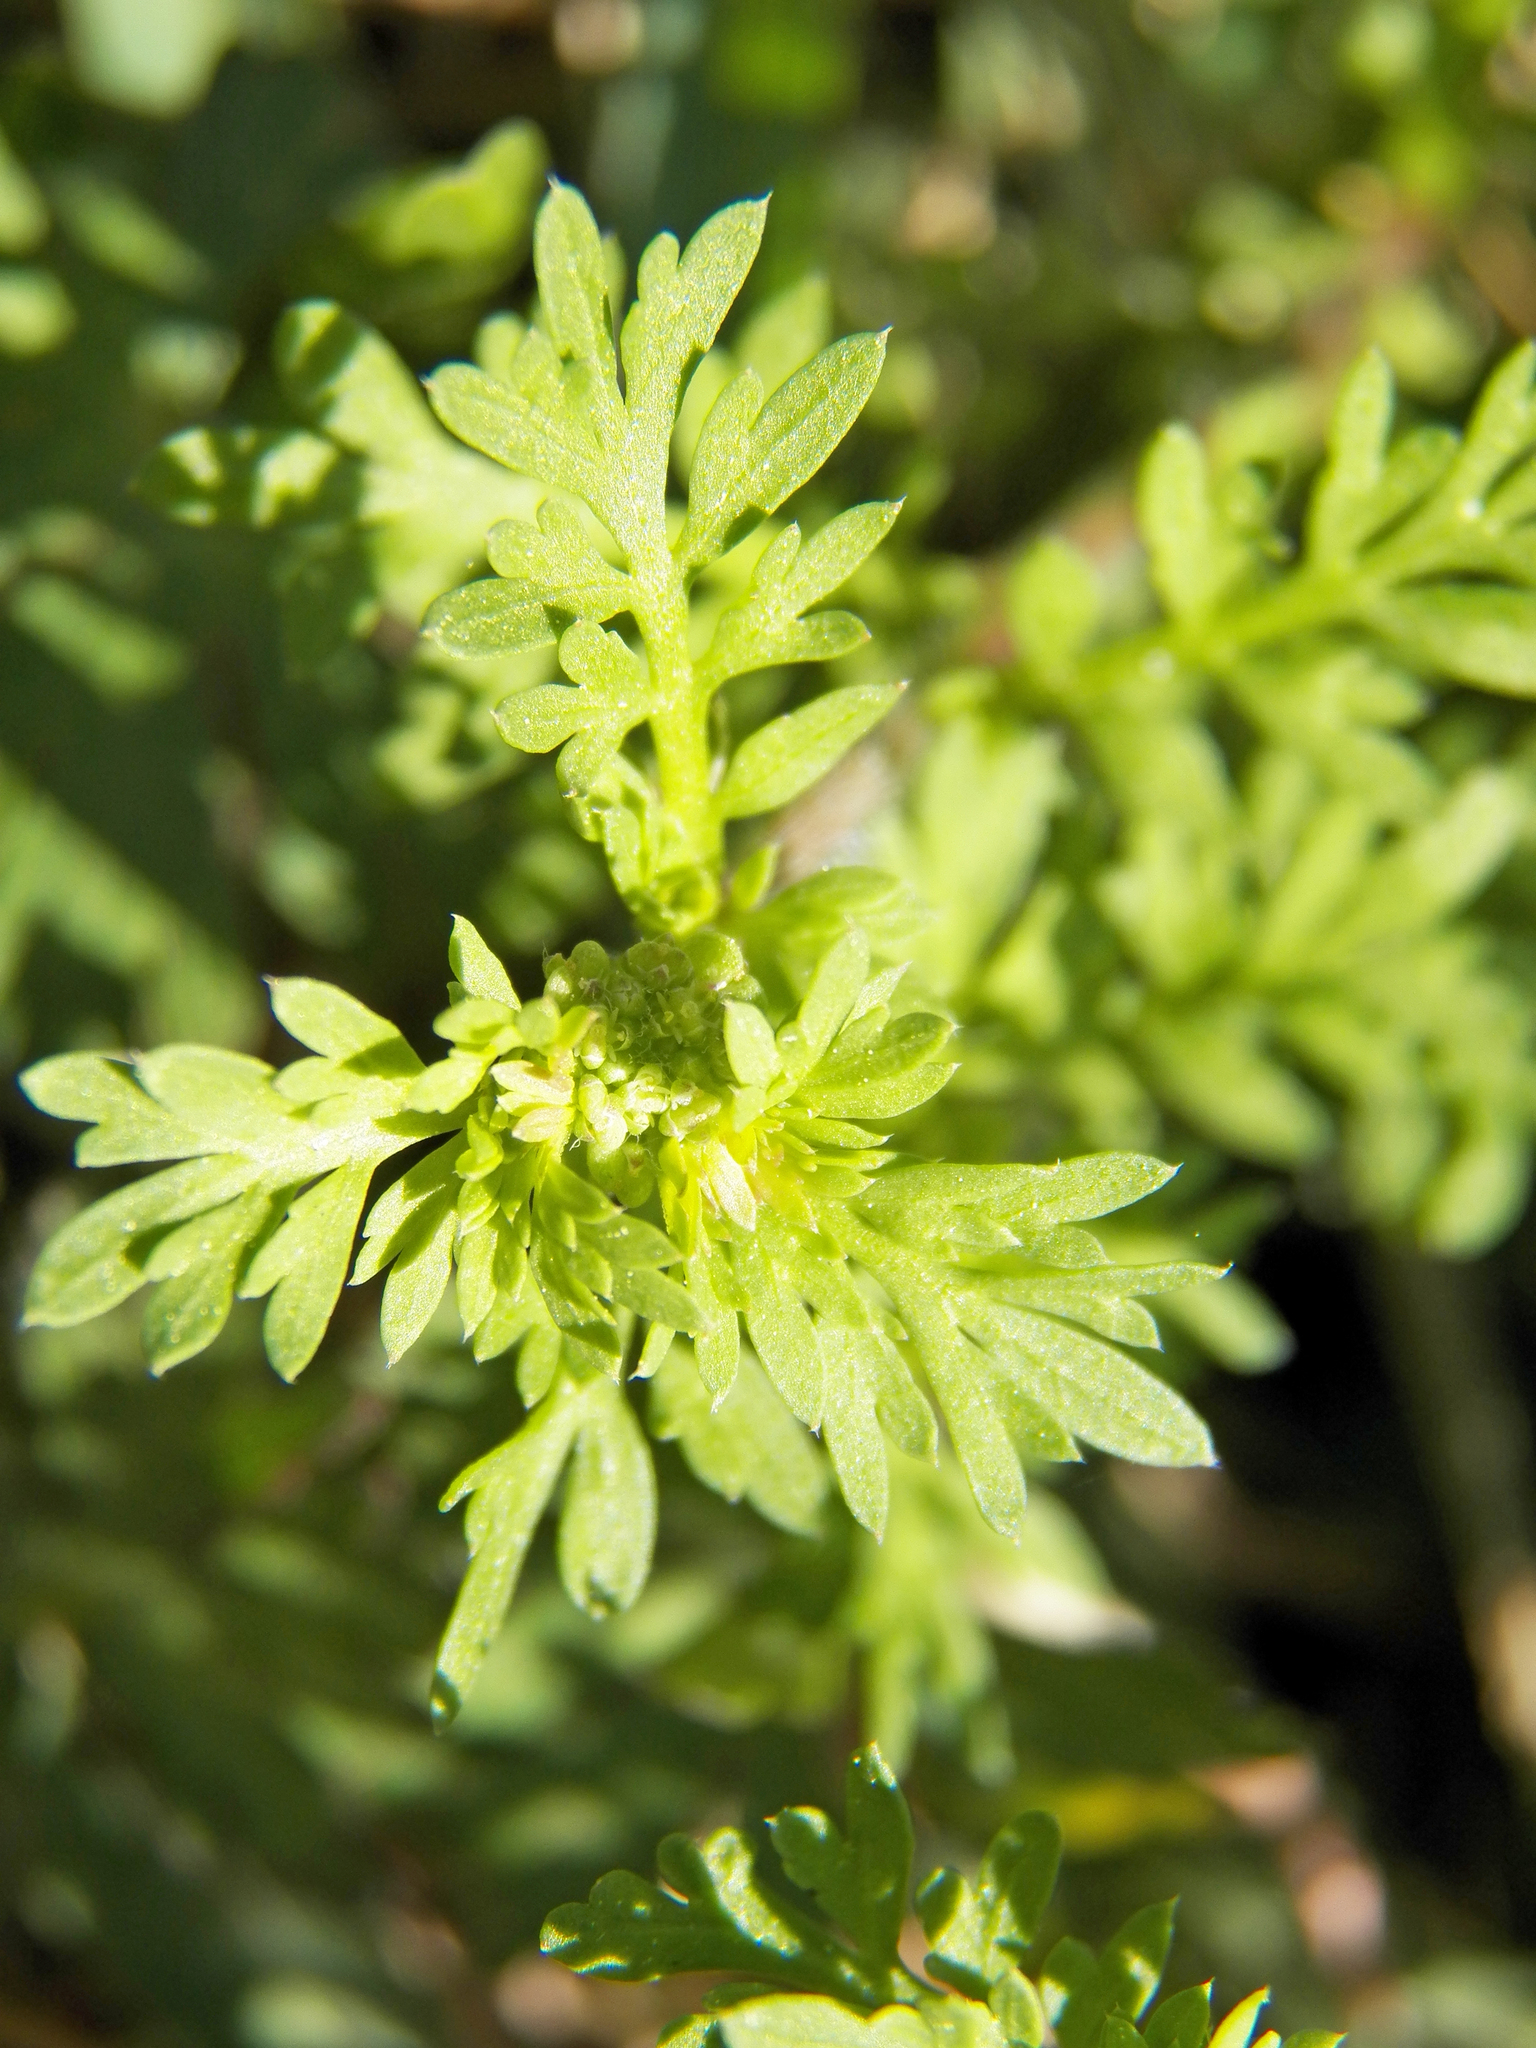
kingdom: Plantae
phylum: Tracheophyta
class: Magnoliopsida
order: Asterales
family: Asteraceae
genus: Soliva
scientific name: Soliva sessilis
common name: Field burrweed
